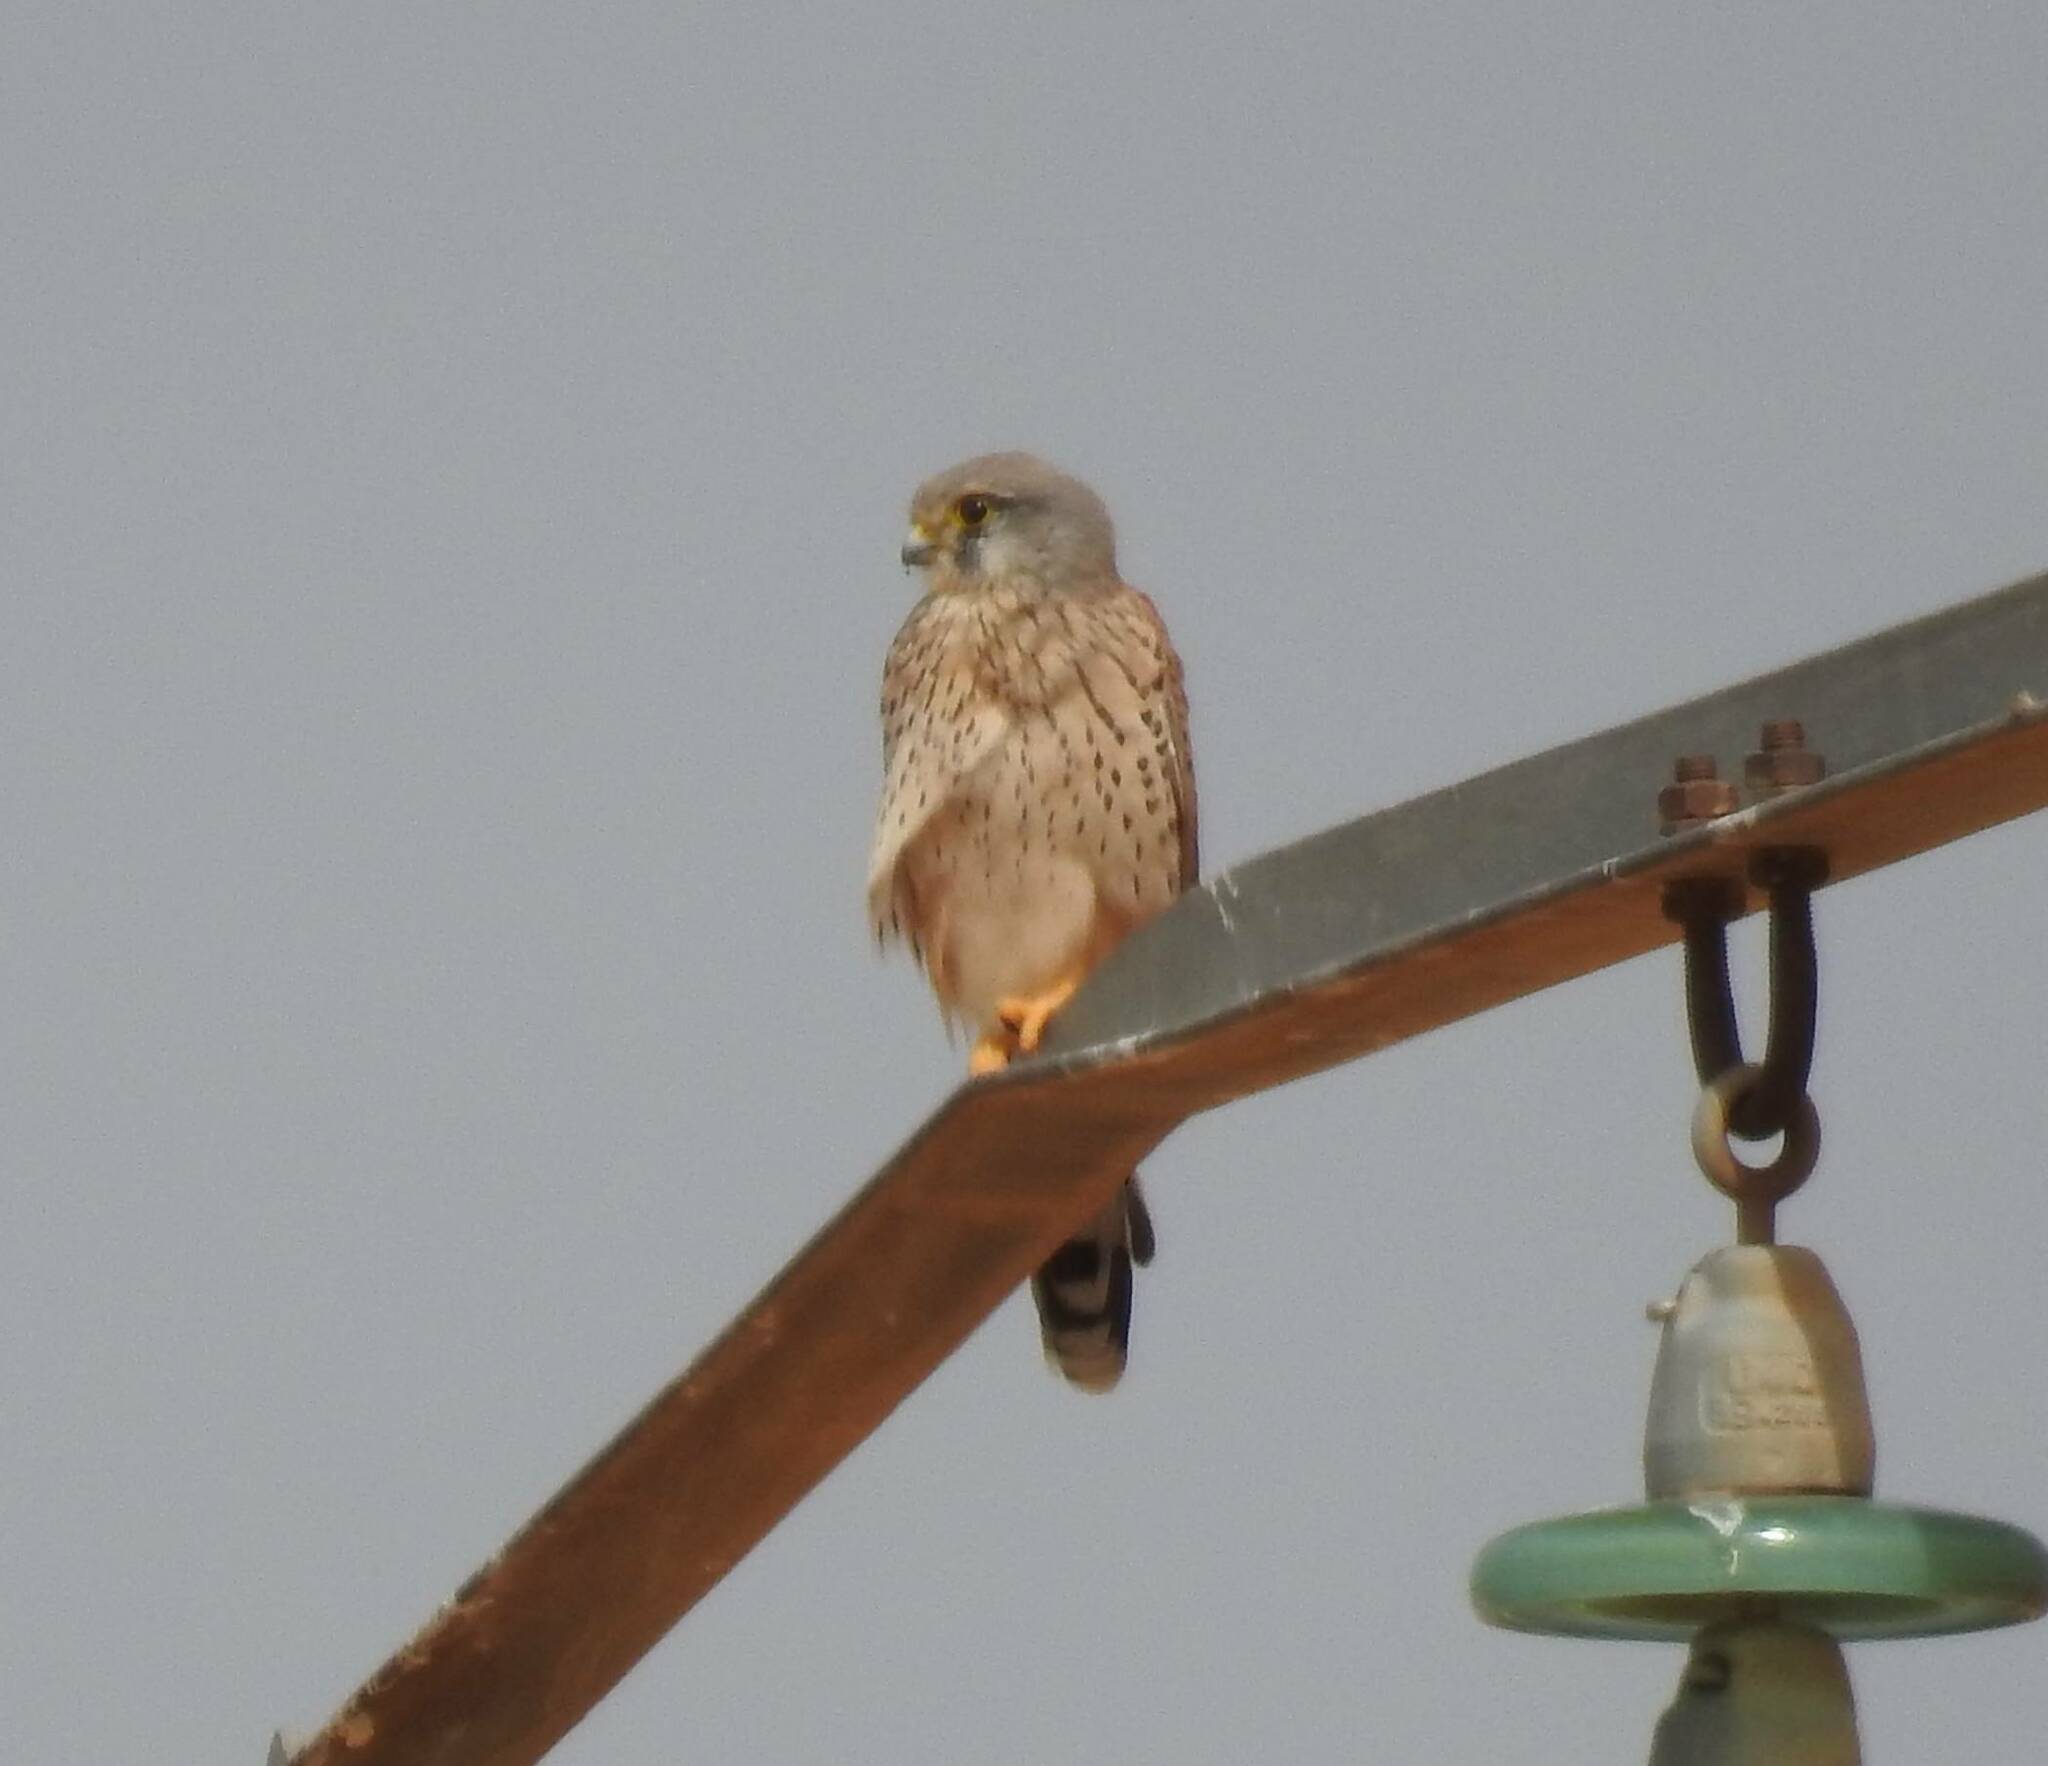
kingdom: Animalia
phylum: Chordata
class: Aves
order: Falconiformes
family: Falconidae
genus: Falco
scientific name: Falco tinnunculus
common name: Common kestrel
